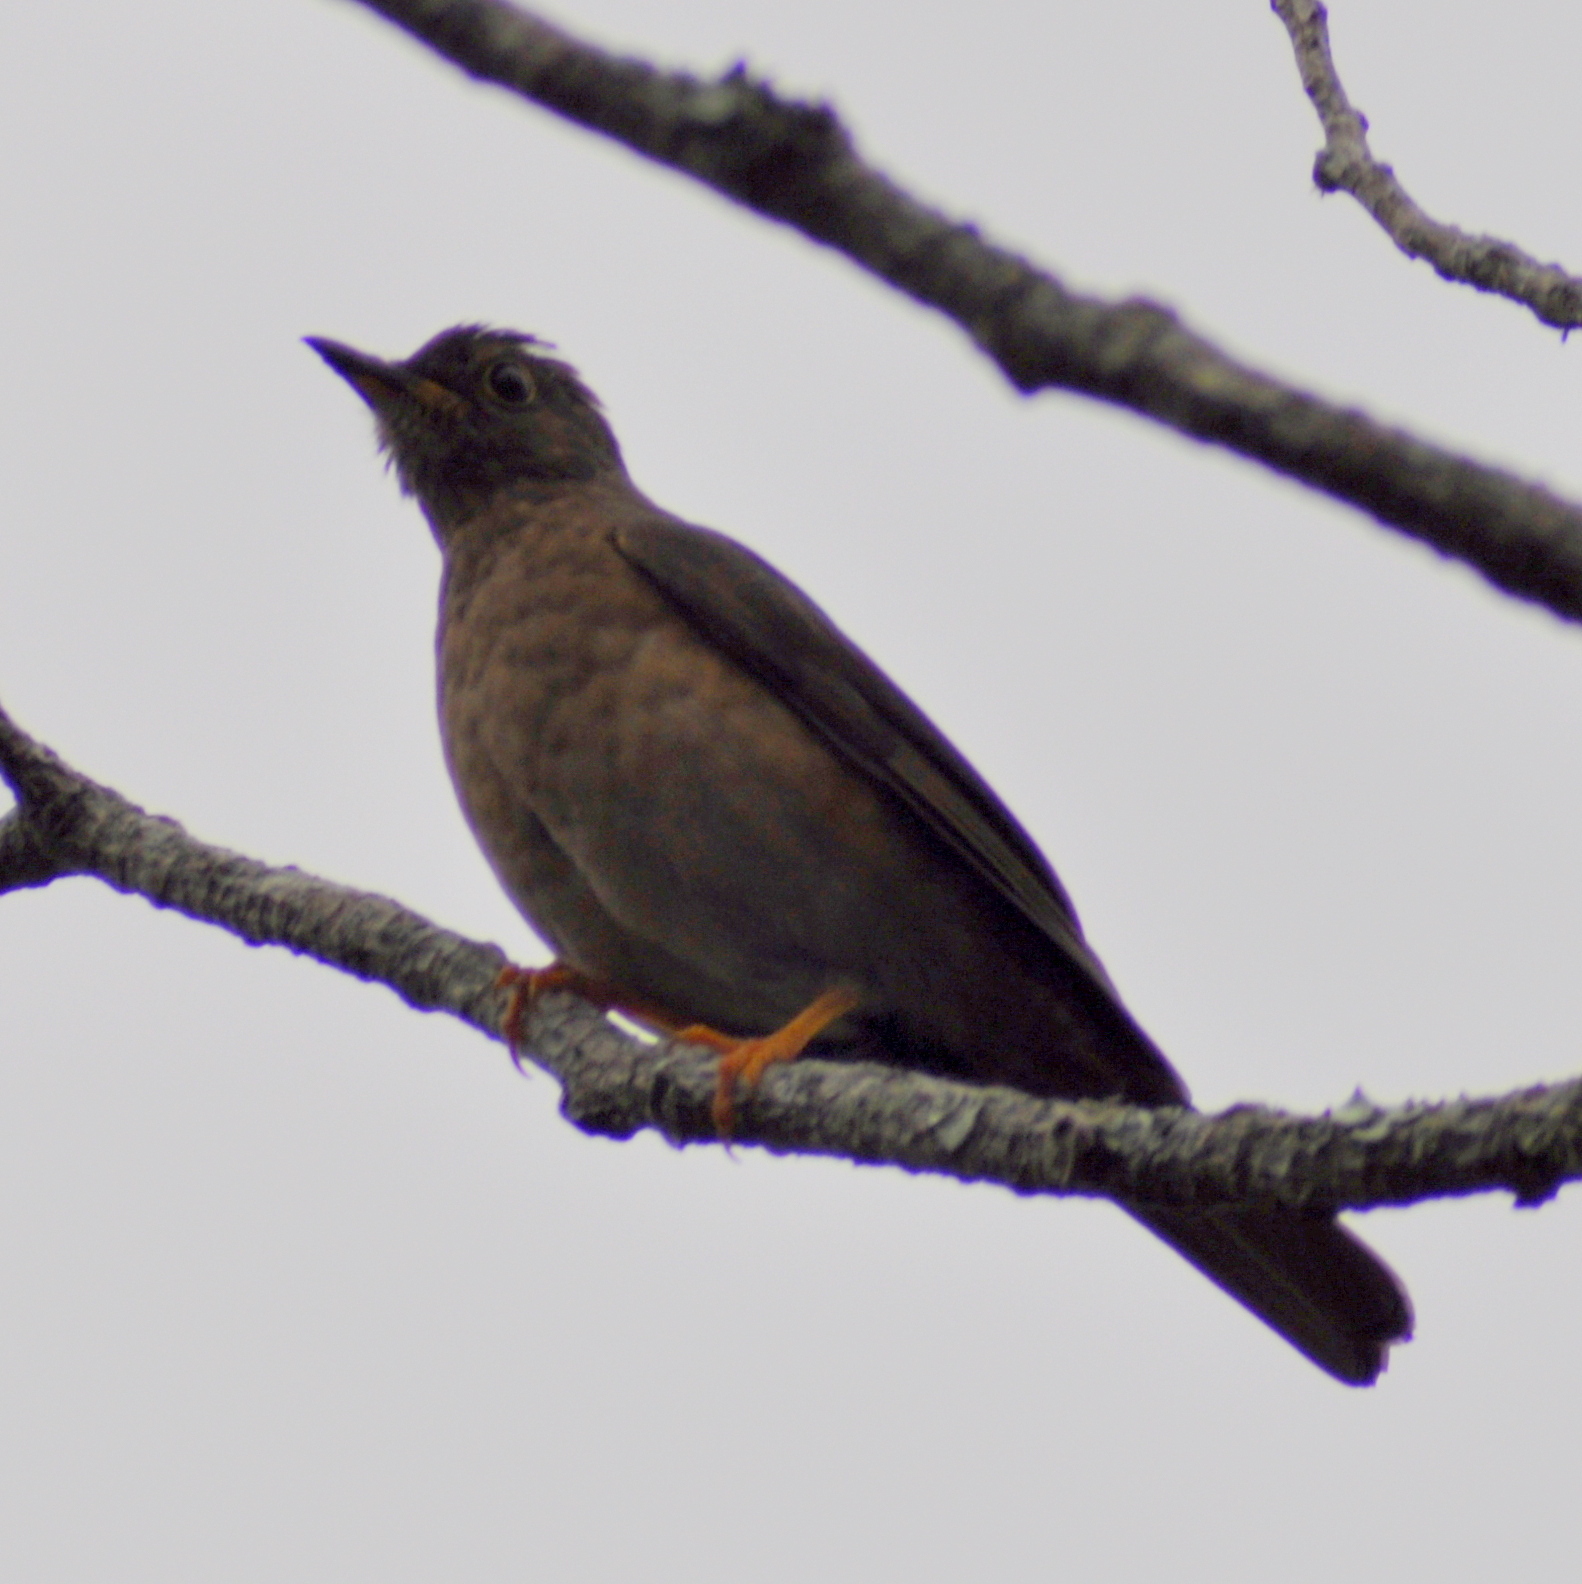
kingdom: Animalia
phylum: Chordata
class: Aves
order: Passeriformes
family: Turdidae
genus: Turdus
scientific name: Turdus flavipes
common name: Yellow-legged thrush
